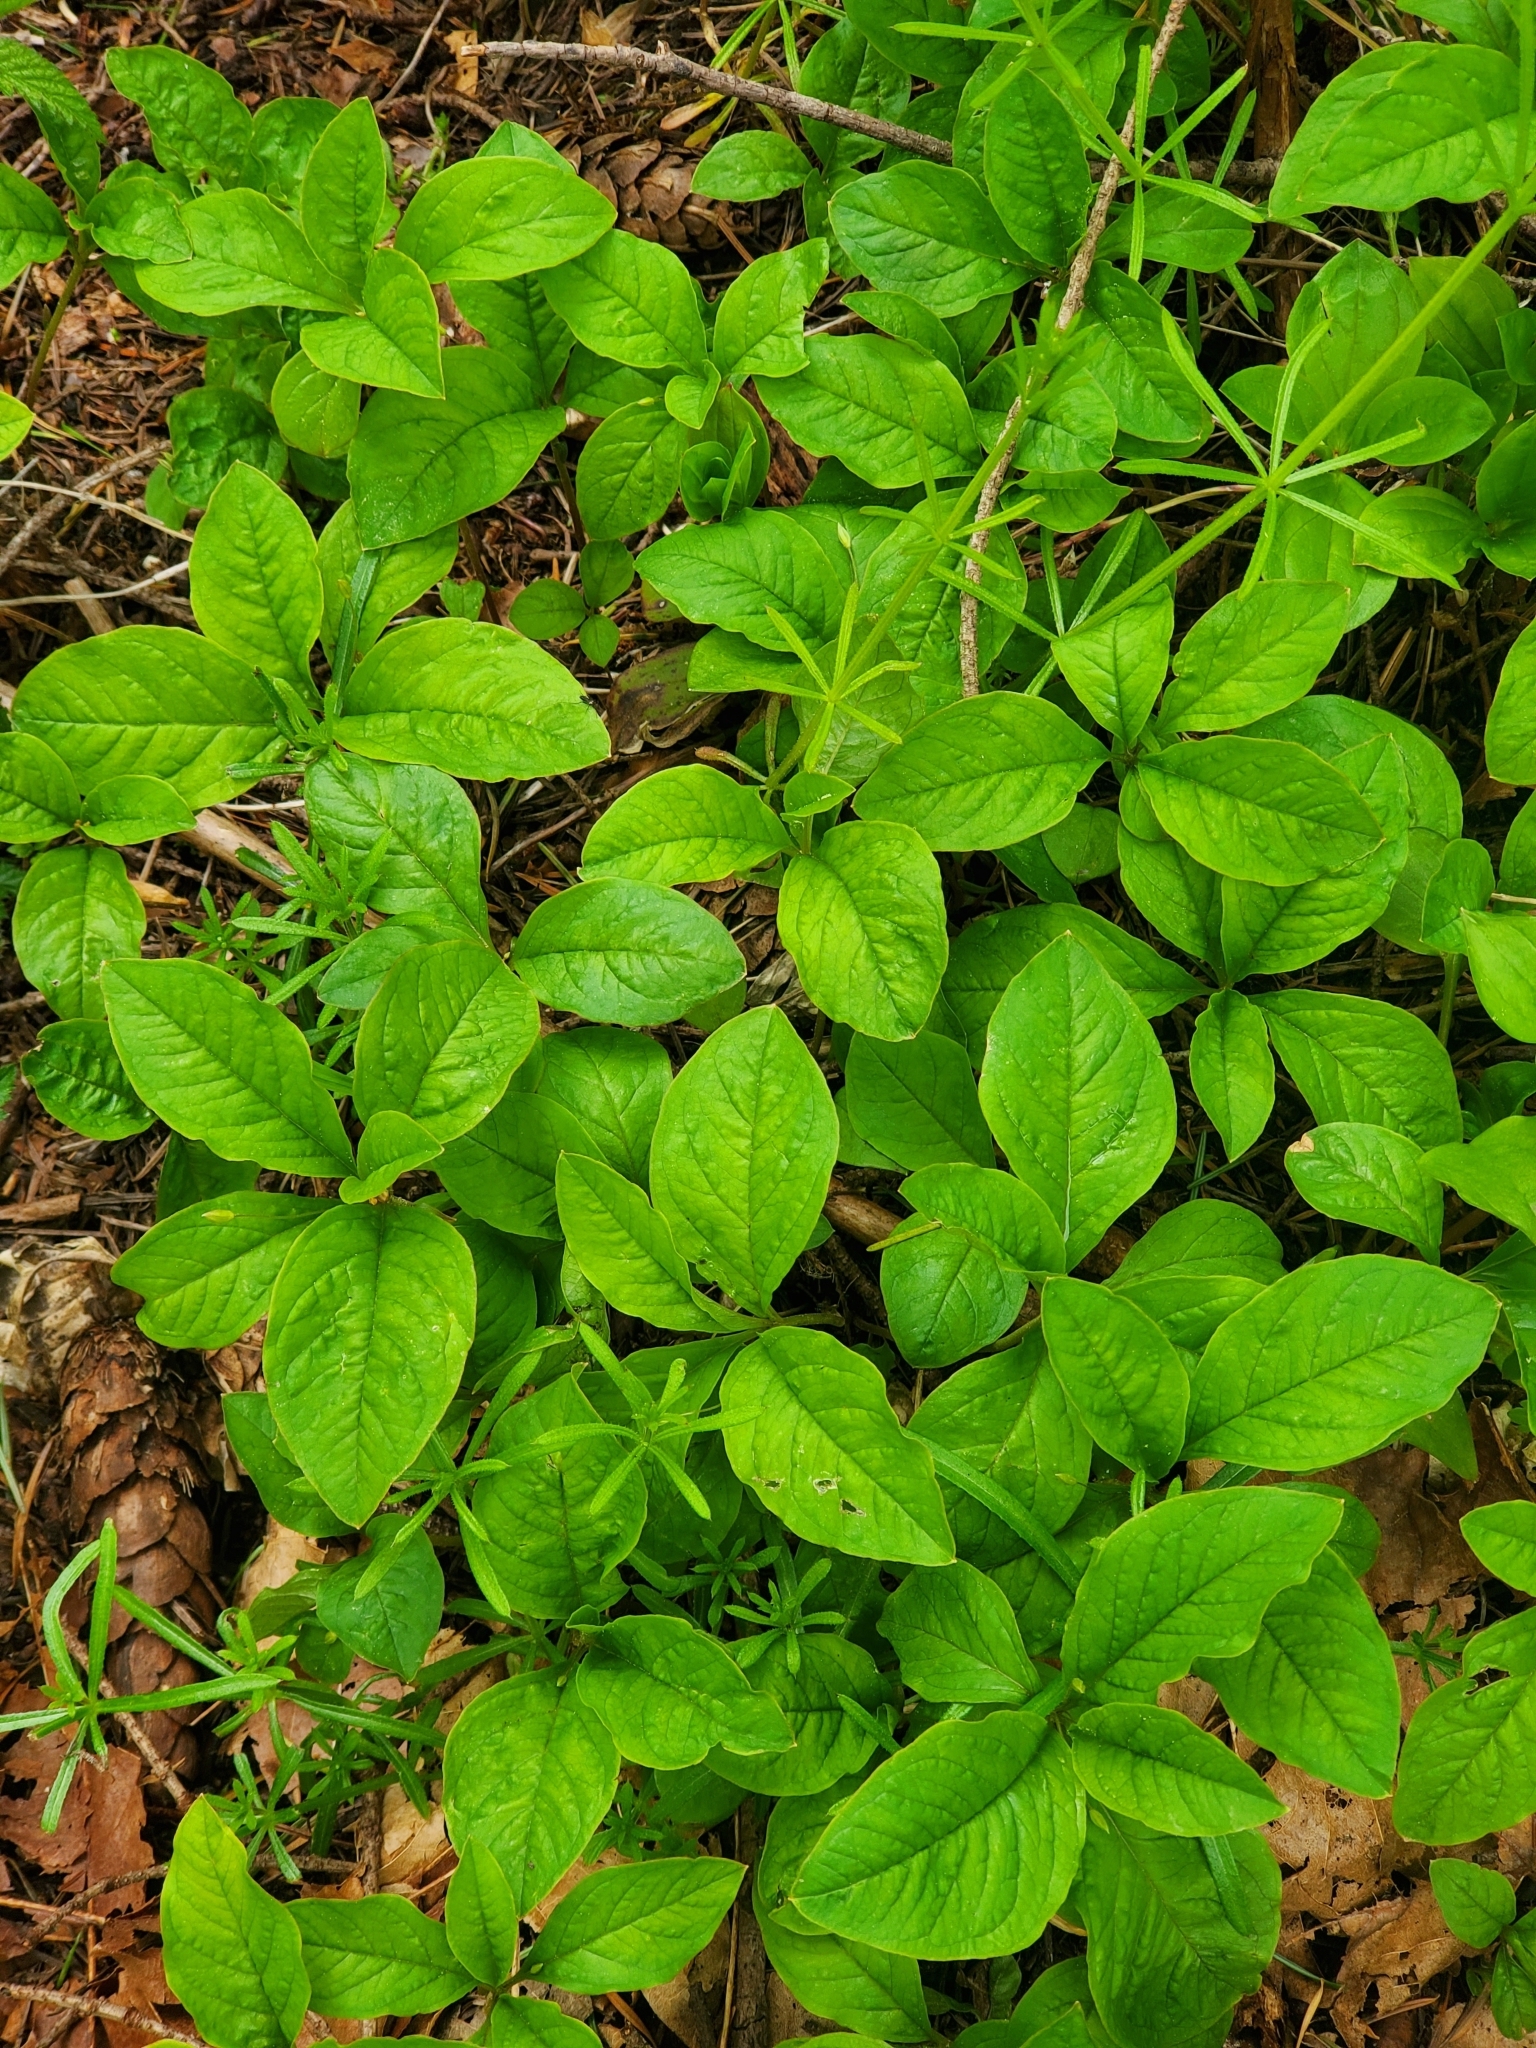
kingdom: Plantae
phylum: Tracheophyta
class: Magnoliopsida
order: Ericales
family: Primulaceae
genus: Lysimachia
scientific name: Lysimachia latifolia
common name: Pacific starflower
